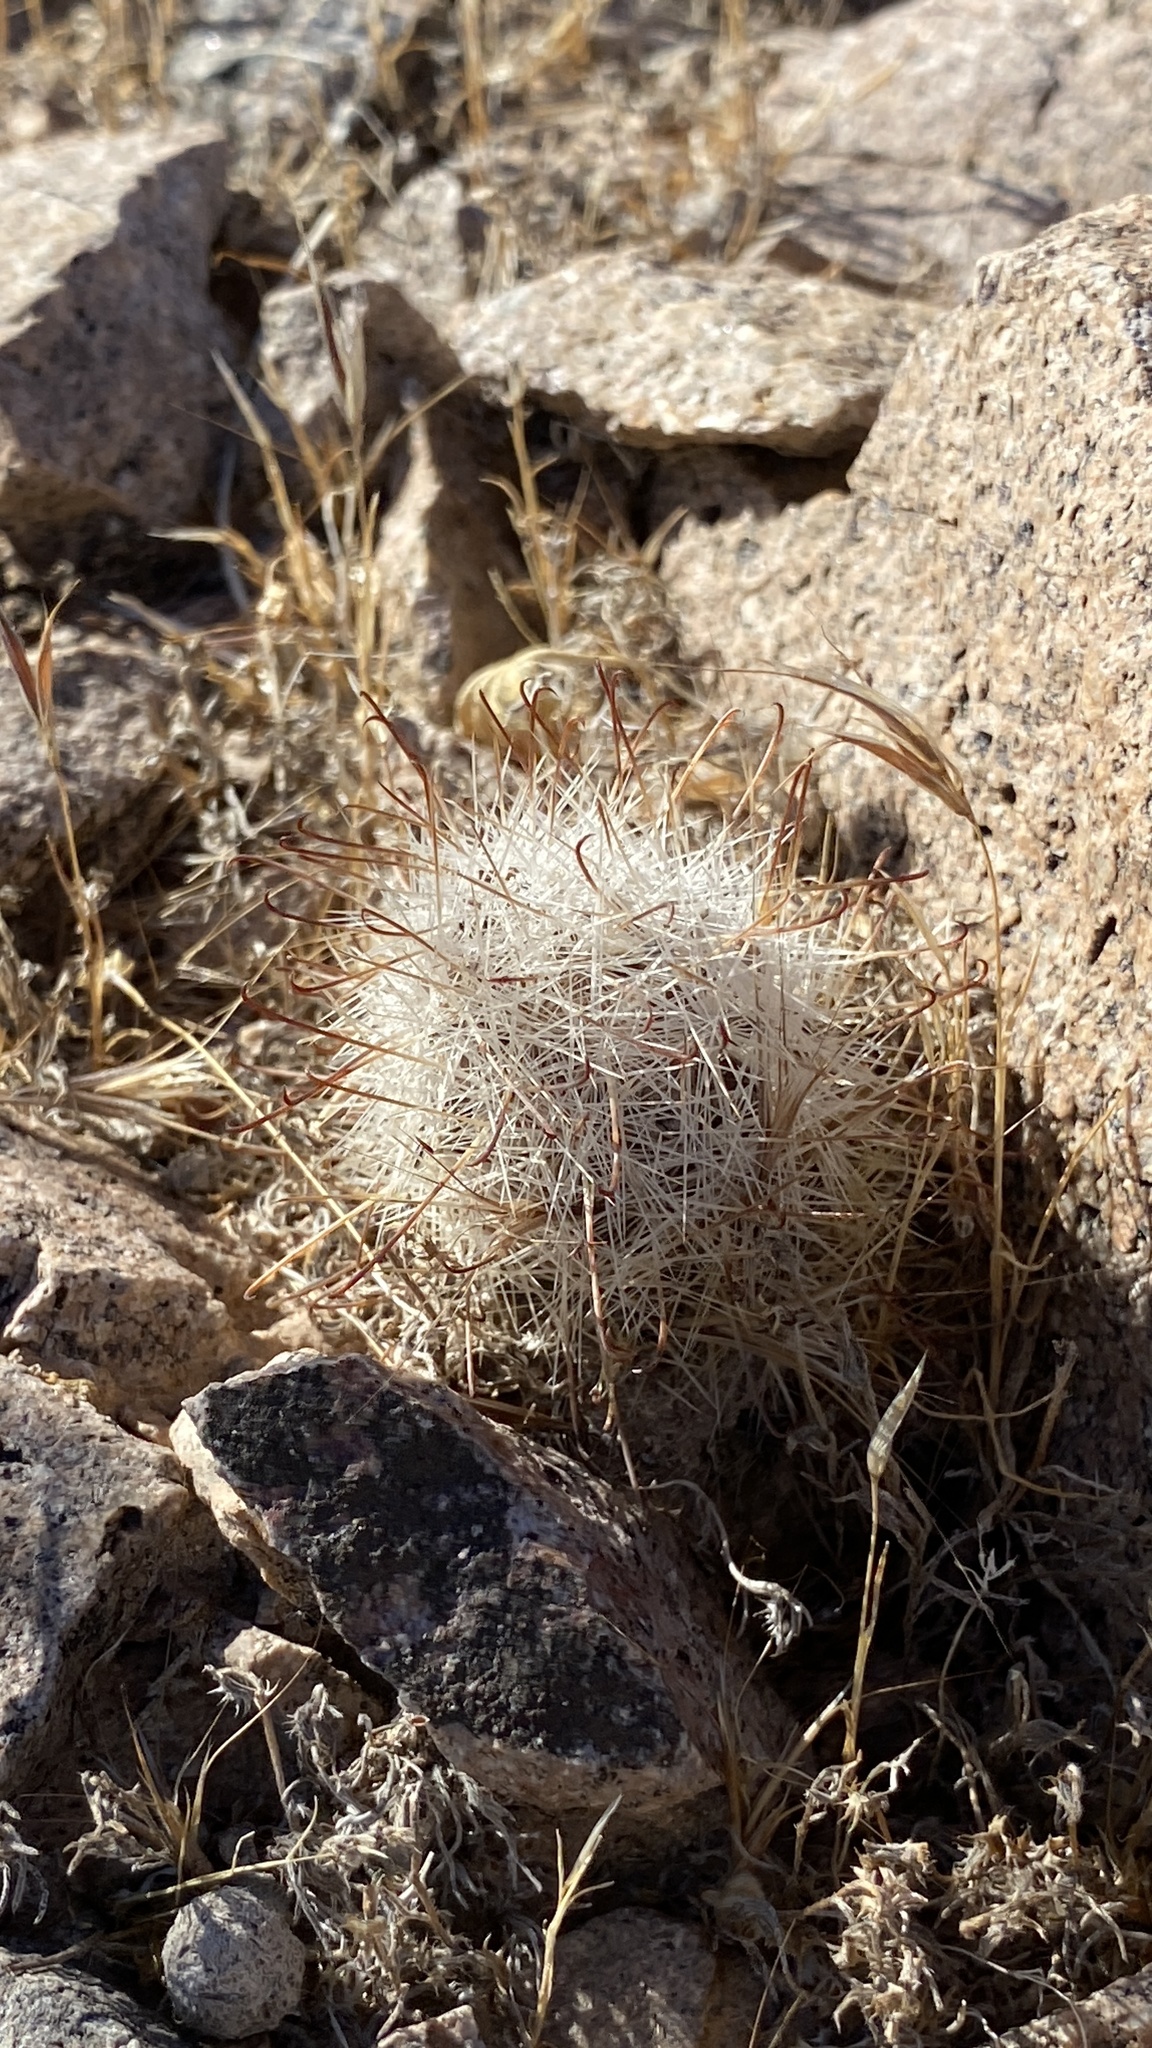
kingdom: Plantae
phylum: Tracheophyta
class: Magnoliopsida
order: Caryophyllales
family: Cactaceae
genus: Cochemiea
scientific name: Cochemiea tetrancistra
